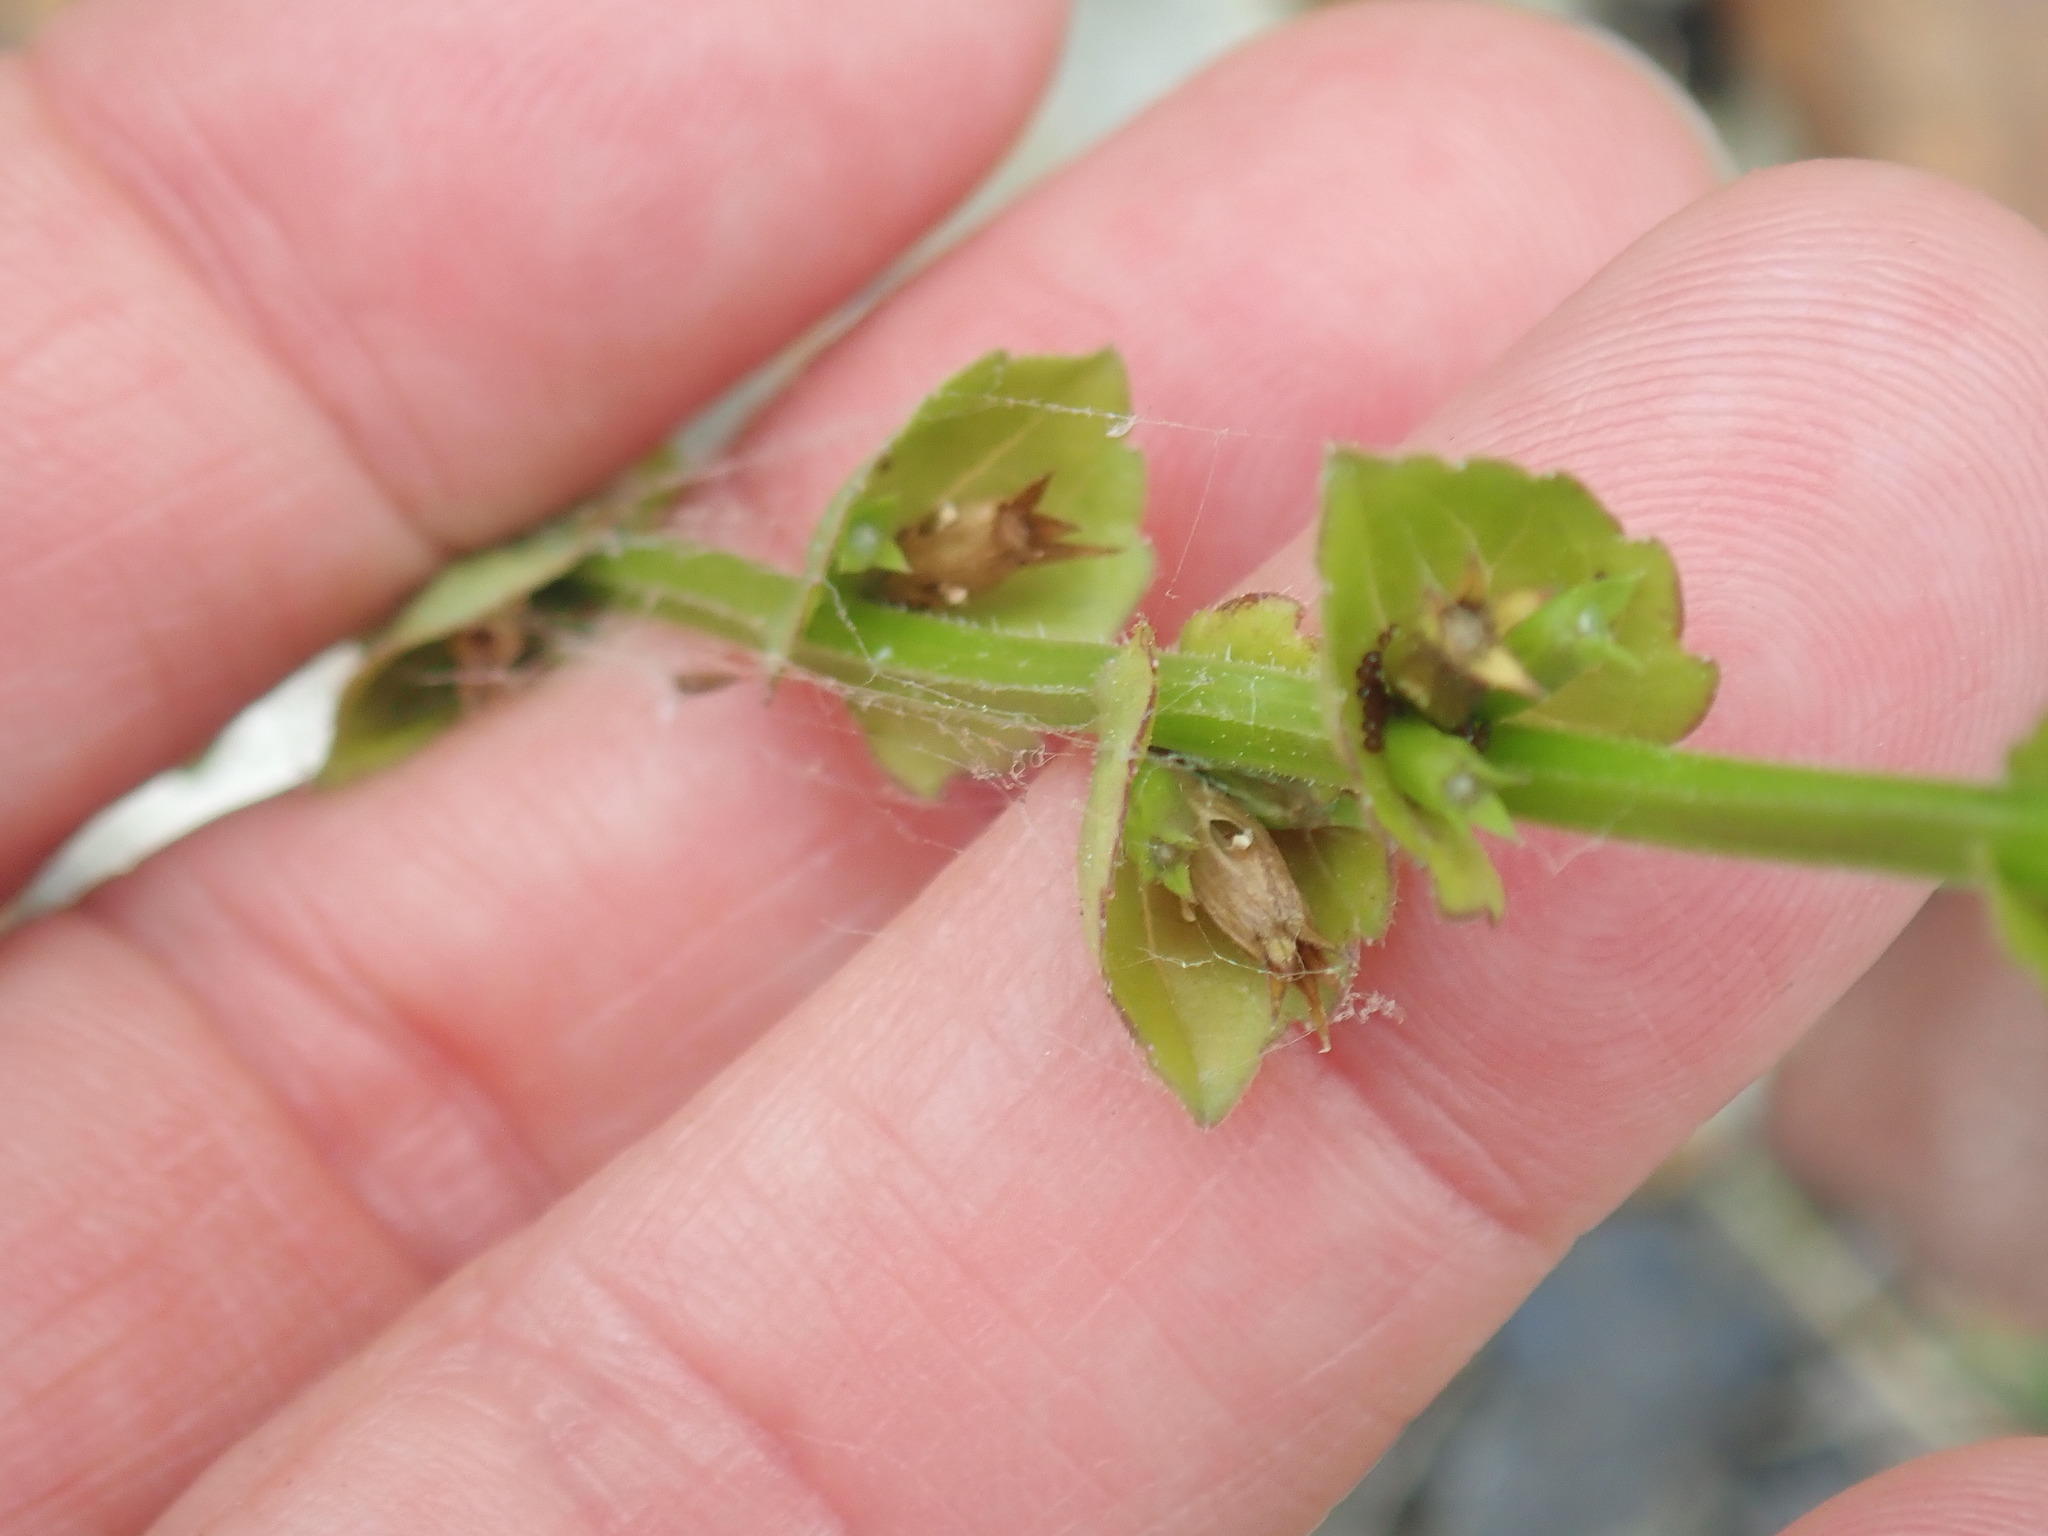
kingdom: Plantae
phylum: Tracheophyta
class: Magnoliopsida
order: Asterales
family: Campanulaceae
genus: Triodanis
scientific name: Triodanis perfoliata
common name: Clasping venus' looking-glass
